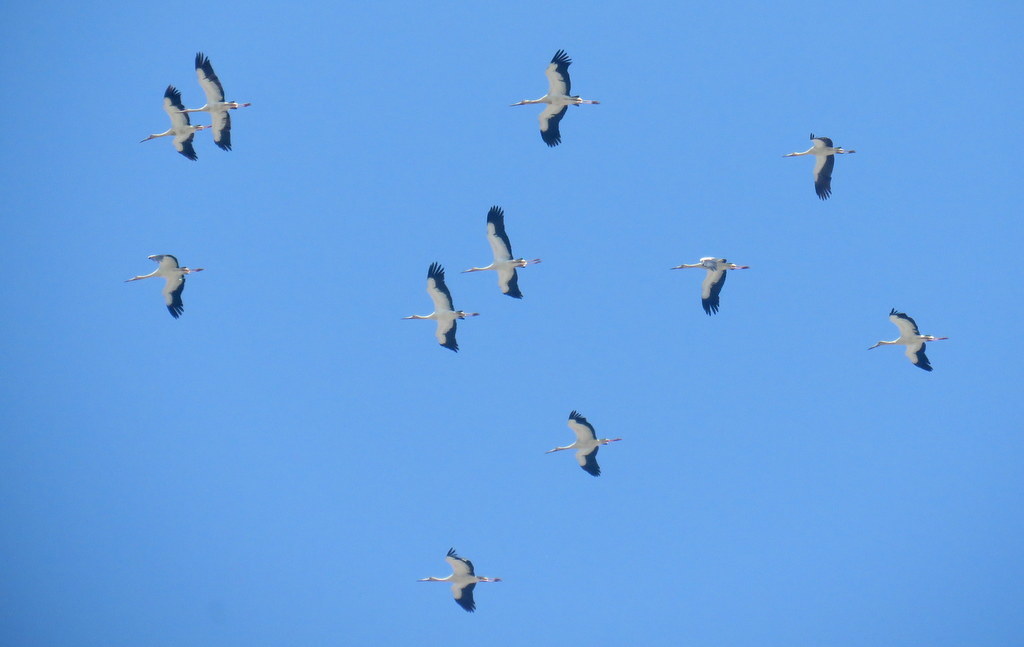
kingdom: Animalia
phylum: Chordata
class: Aves
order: Ciconiiformes
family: Ciconiidae
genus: Ciconia
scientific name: Ciconia maguari
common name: Maguari stork
